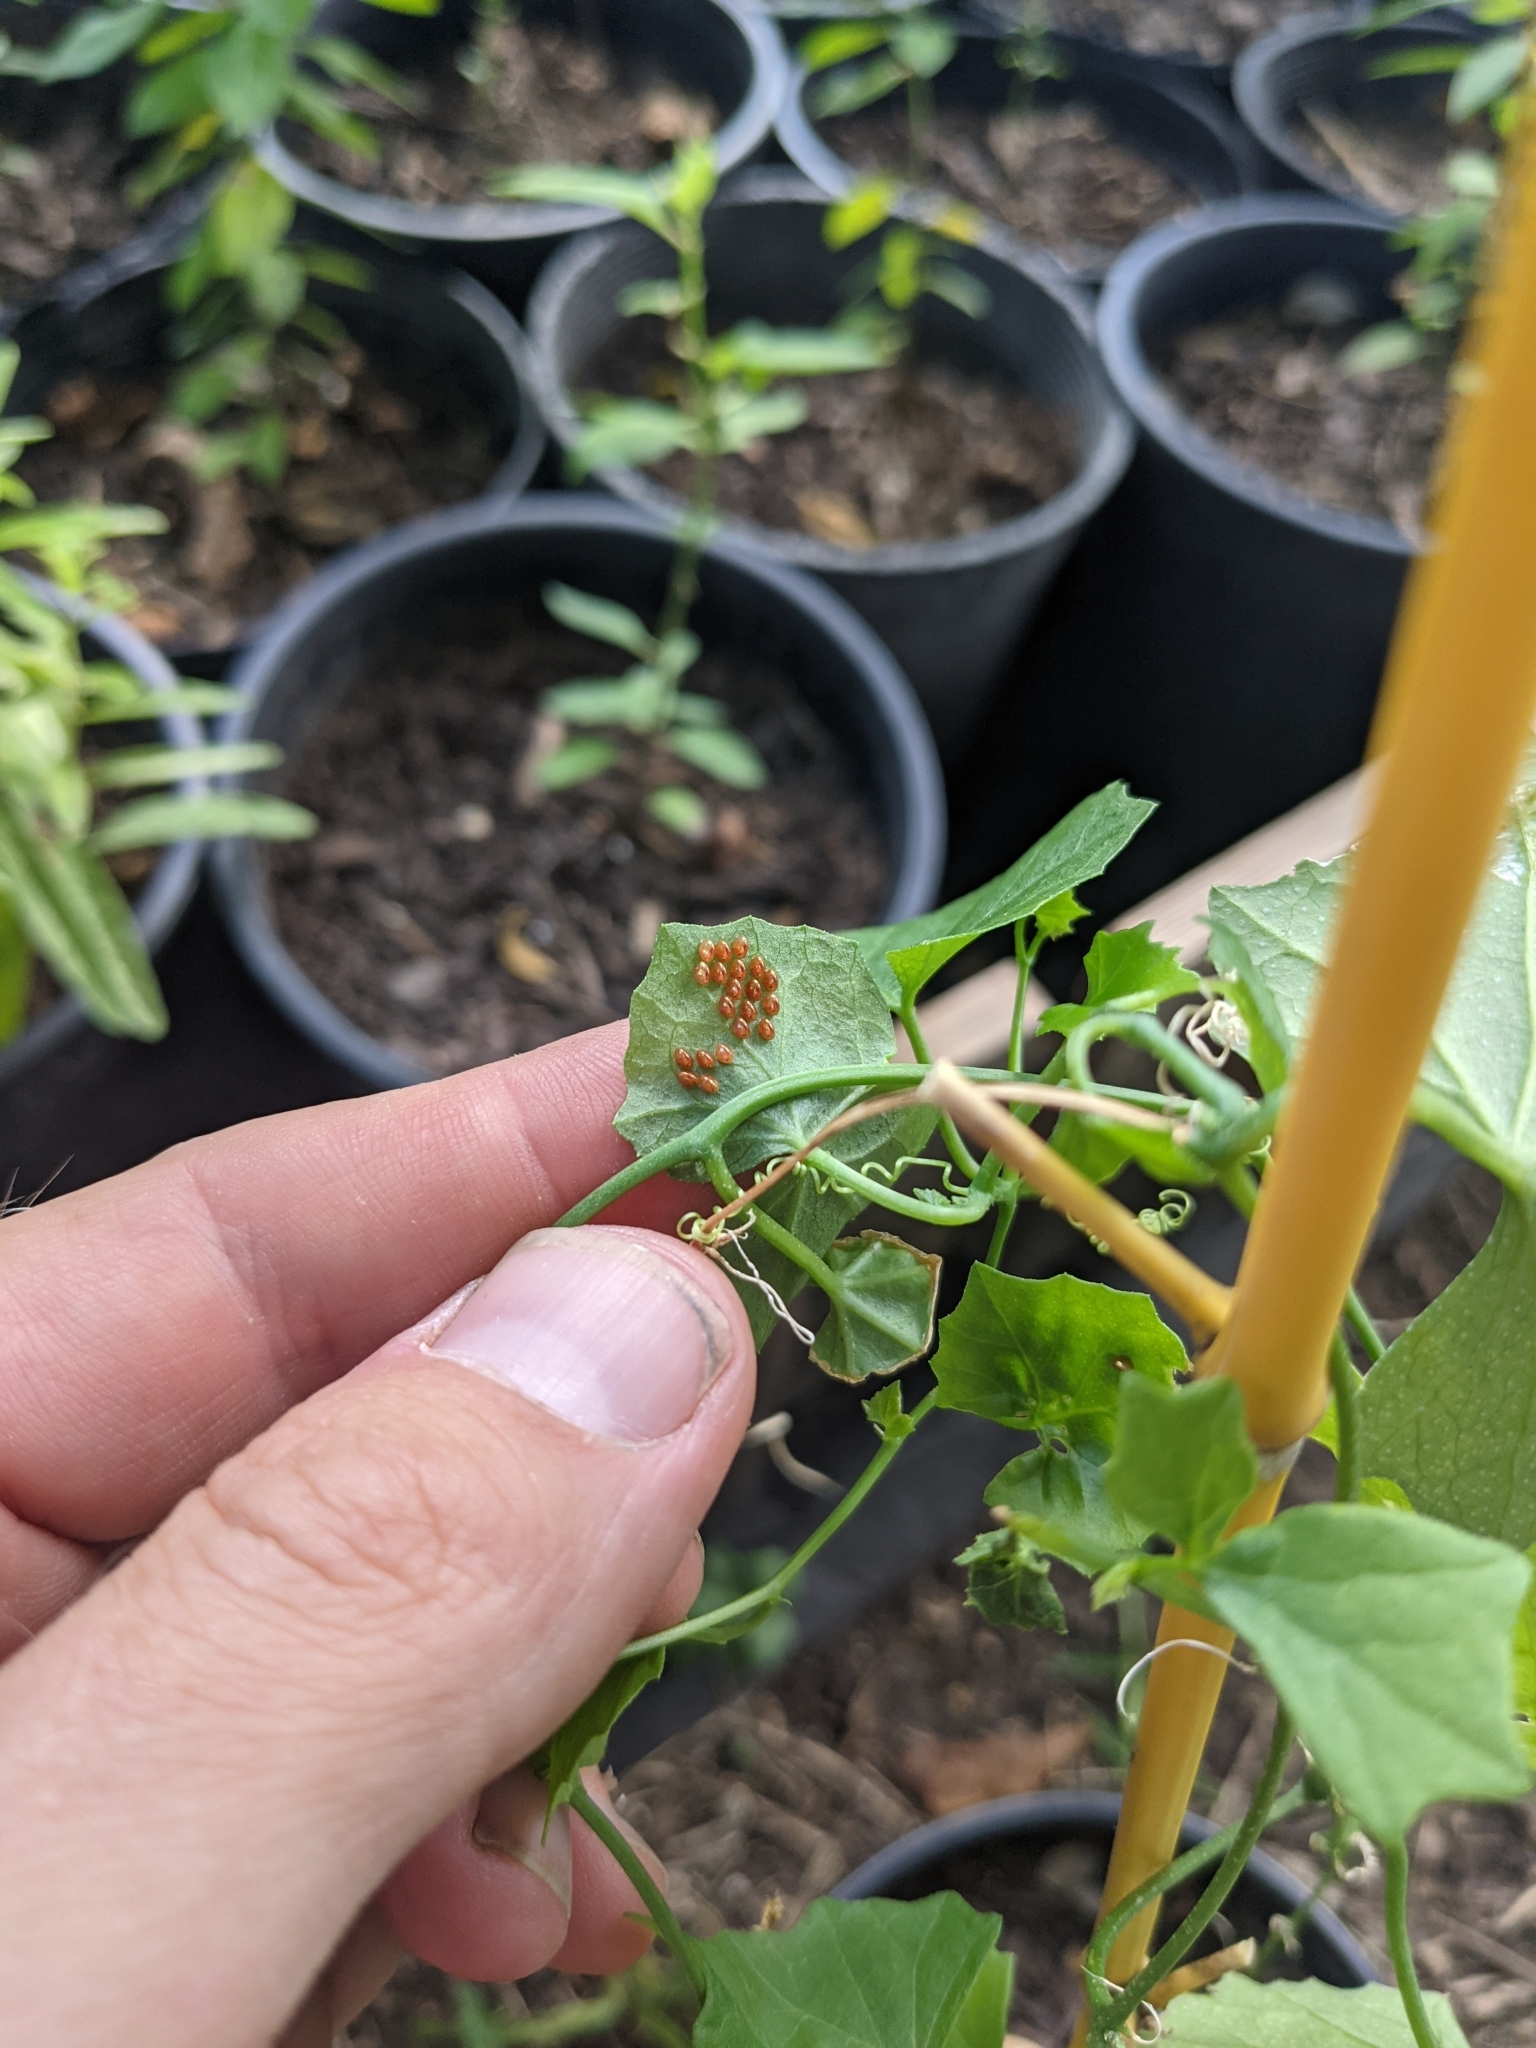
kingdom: Animalia
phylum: Arthropoda
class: Insecta
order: Hemiptera
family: Coreidae
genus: Anasa
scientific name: Anasa tristis
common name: Squash bug
